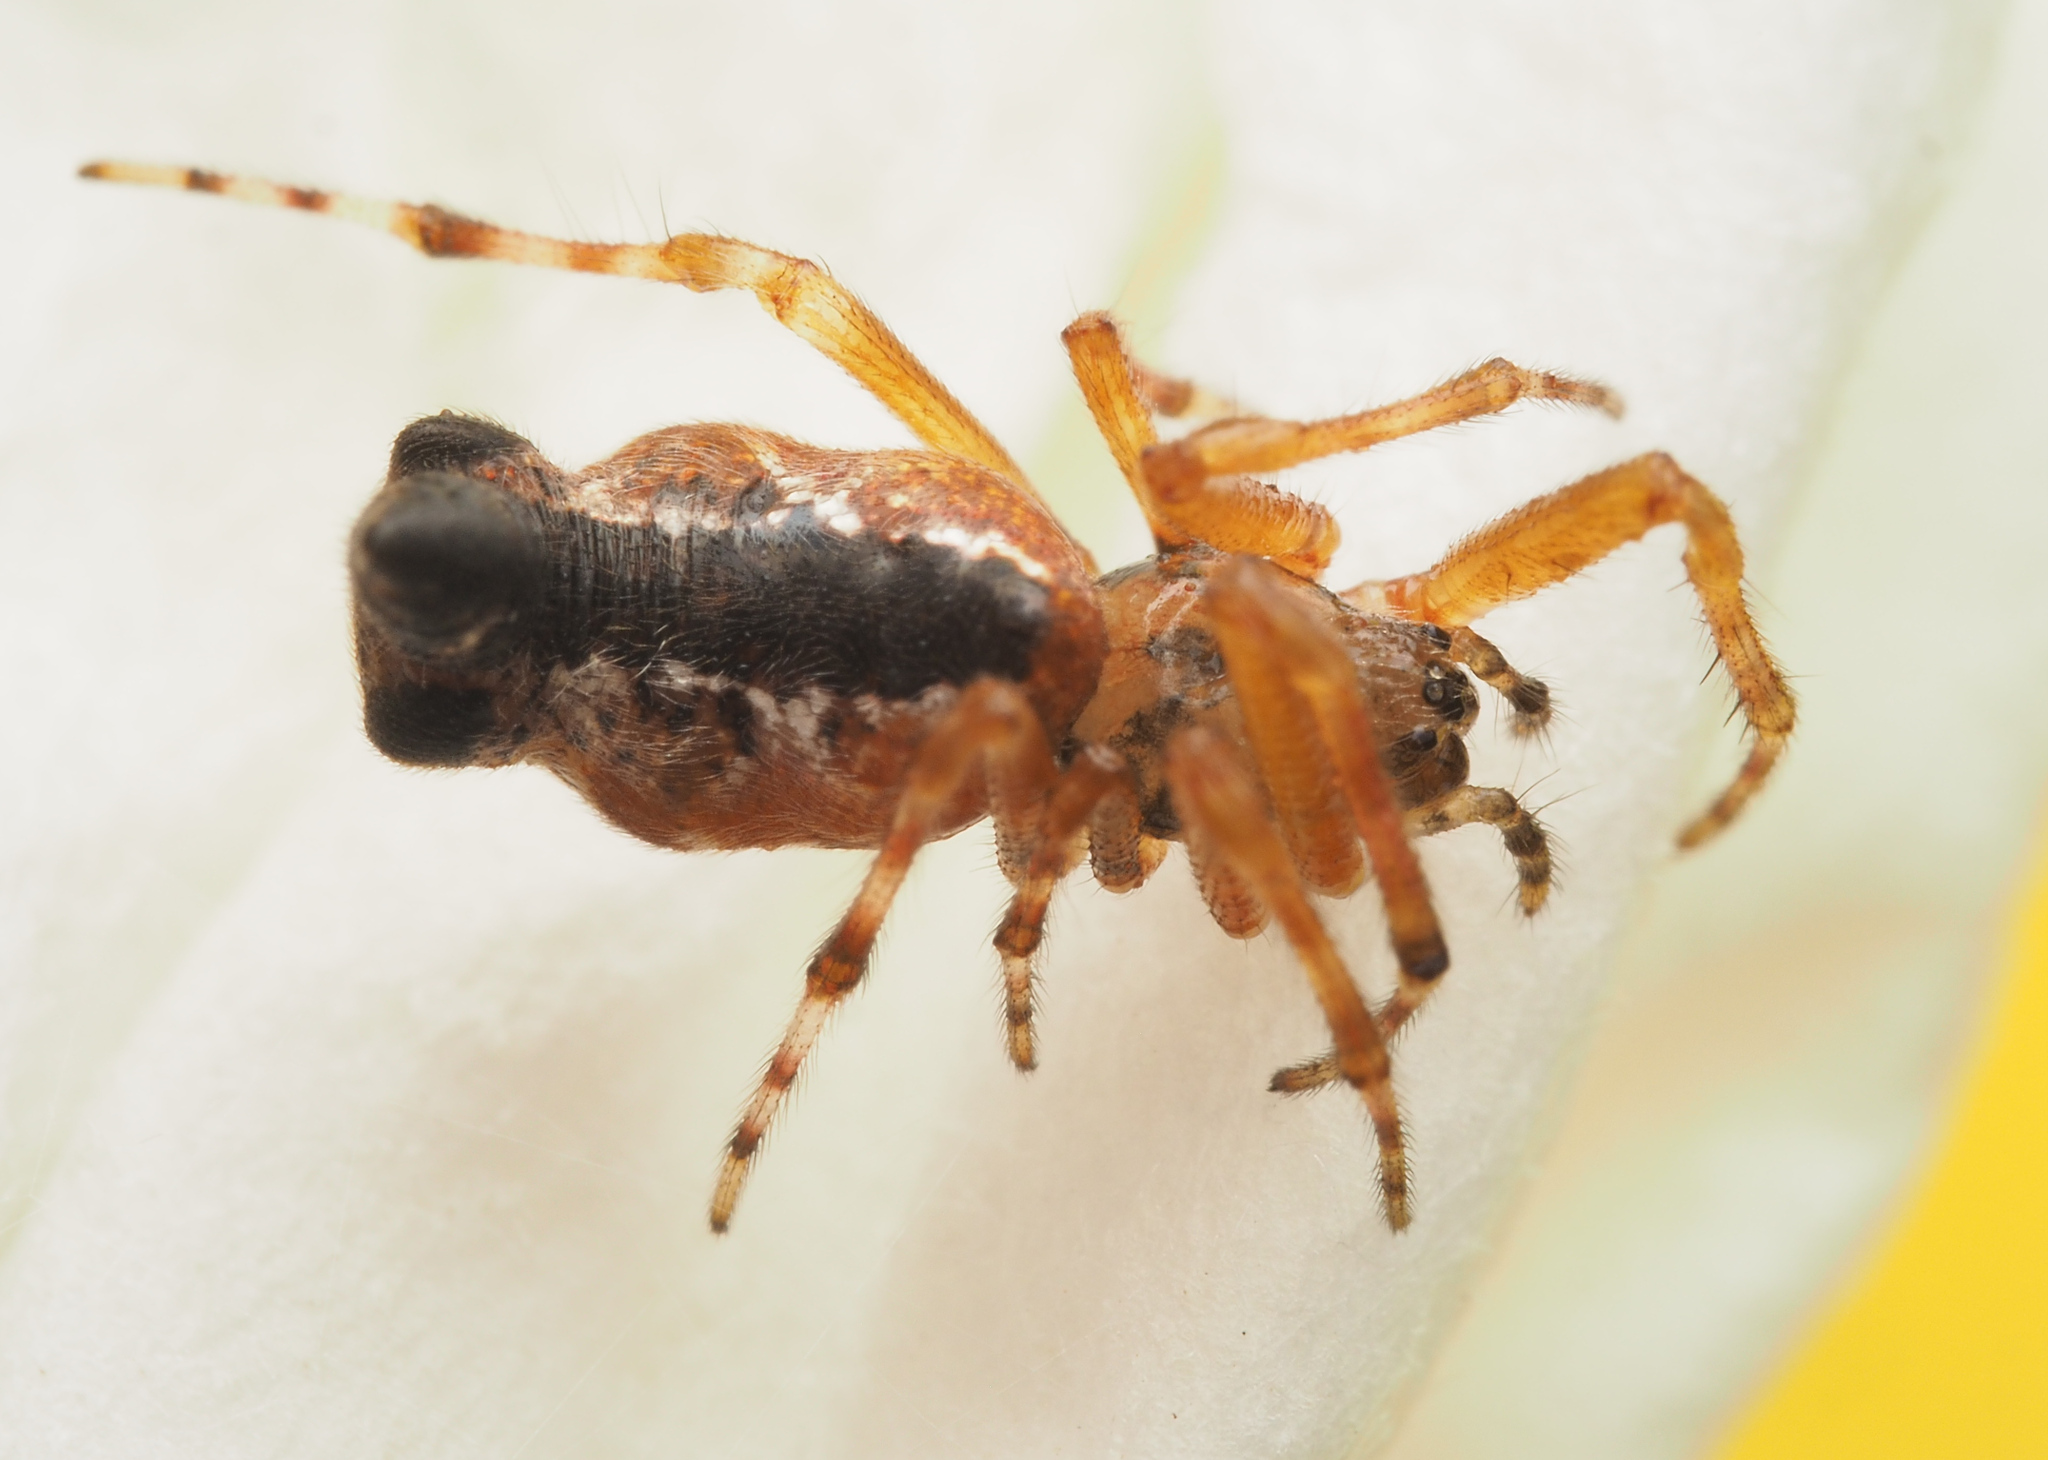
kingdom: Animalia
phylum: Arthropoda
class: Arachnida
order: Araneae
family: Araneidae
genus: Cyclosa
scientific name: Cyclosa
